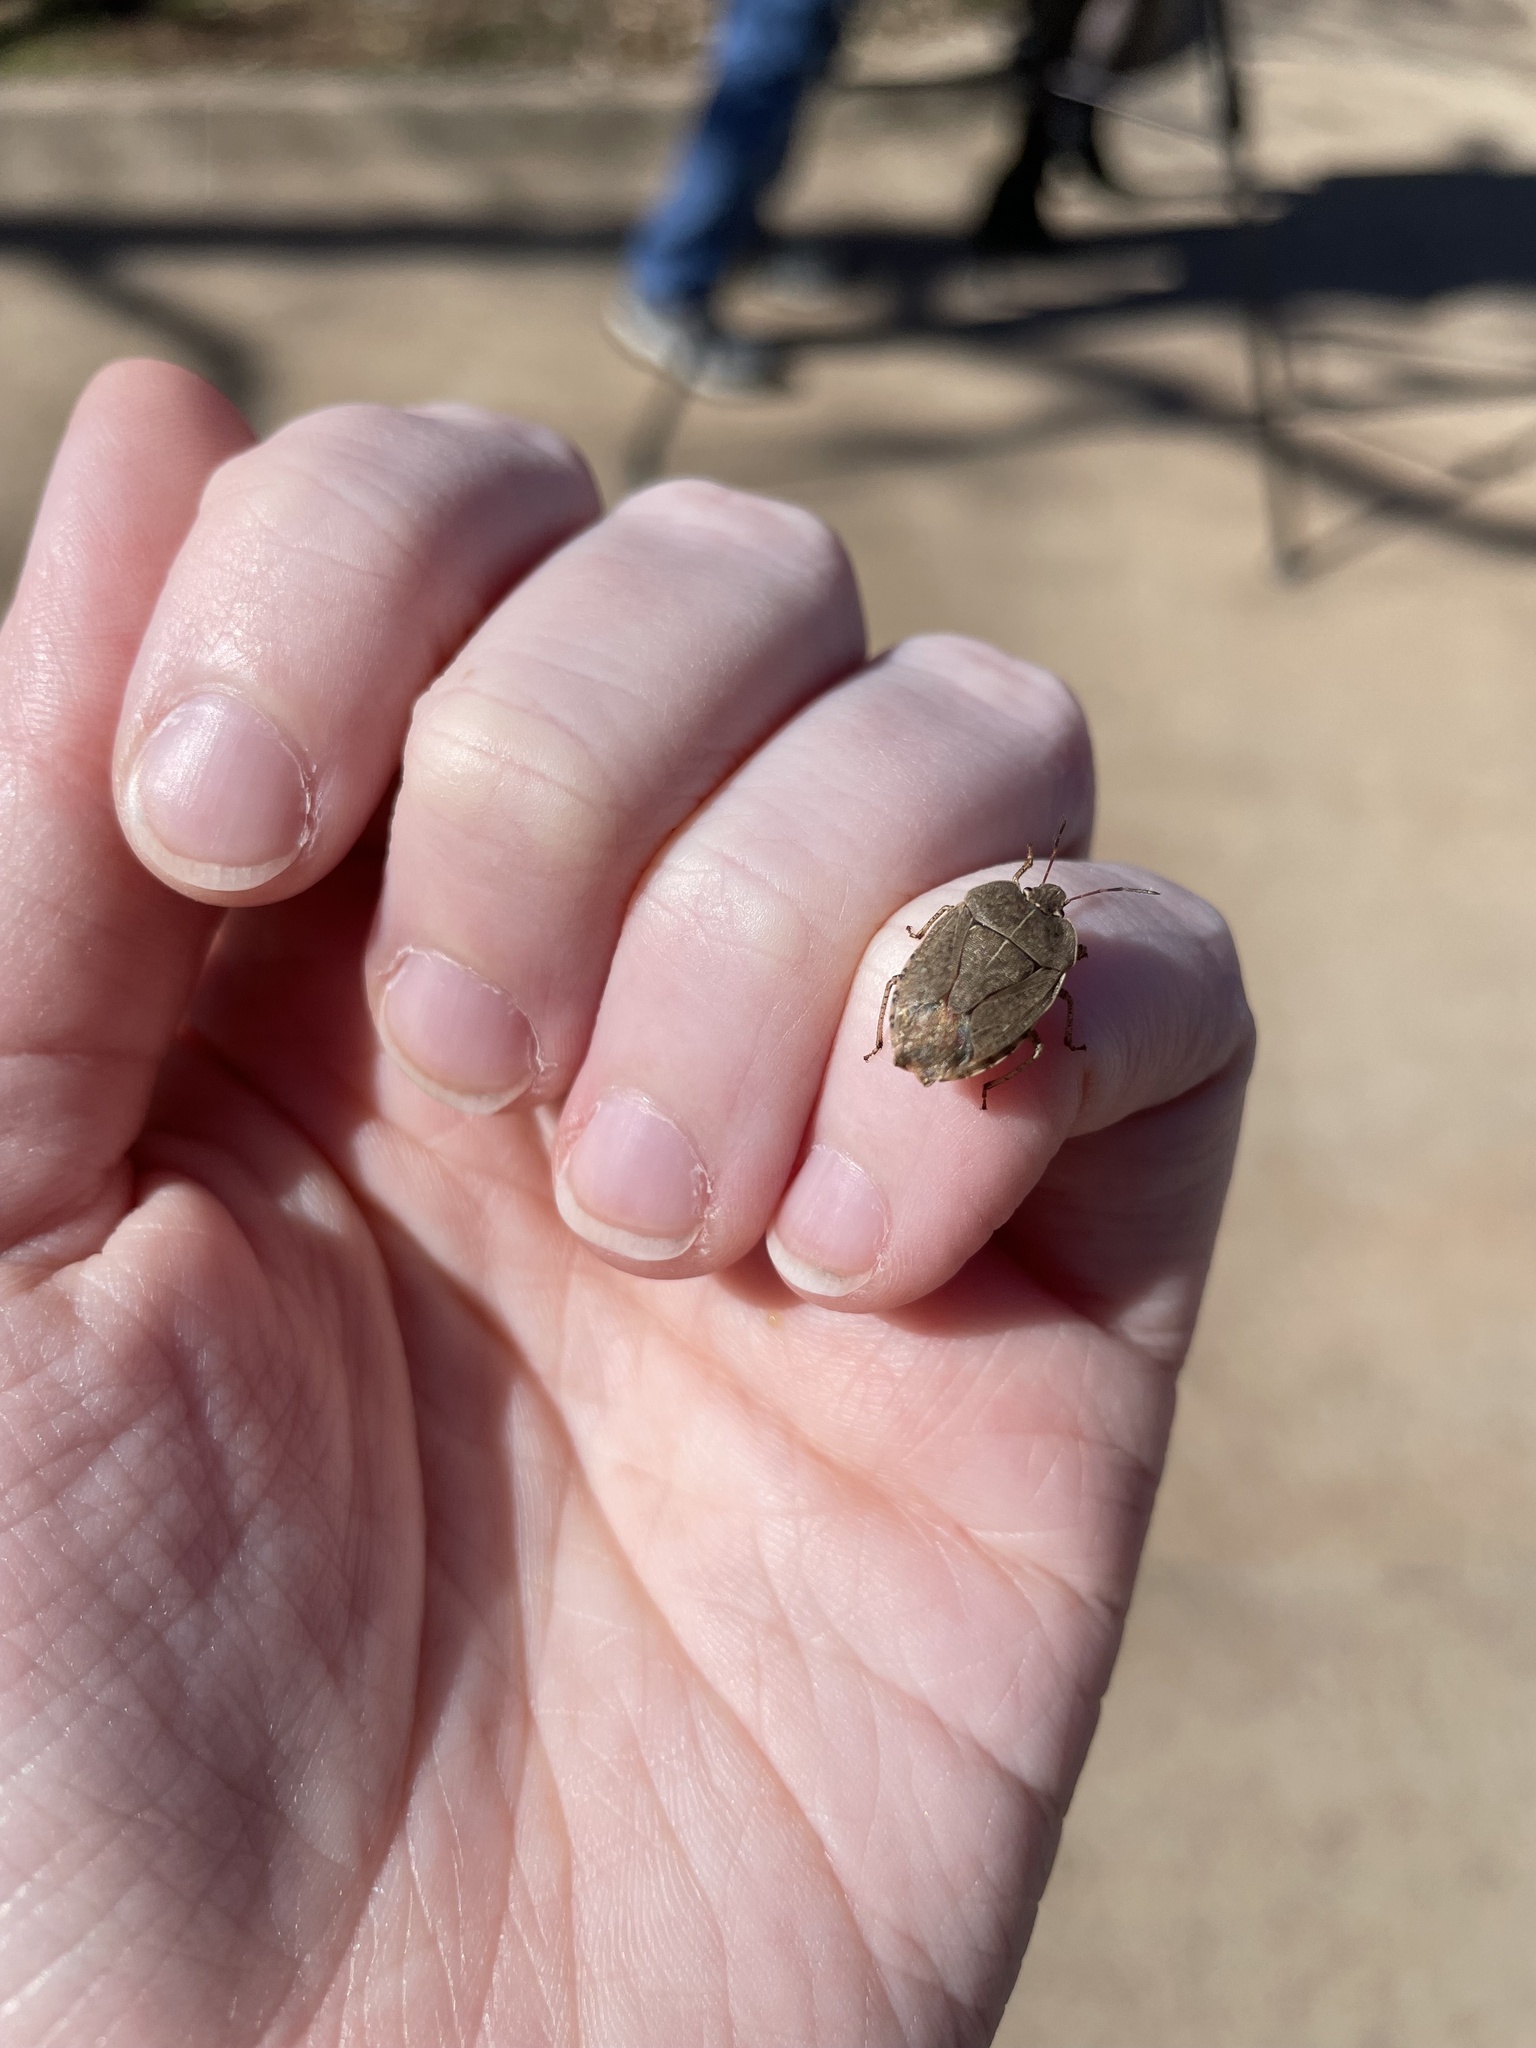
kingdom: Animalia
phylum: Arthropoda
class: Insecta
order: Hemiptera
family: Pentatomidae
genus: Menecles
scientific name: Menecles insertus
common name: Elf shoe stink bug
